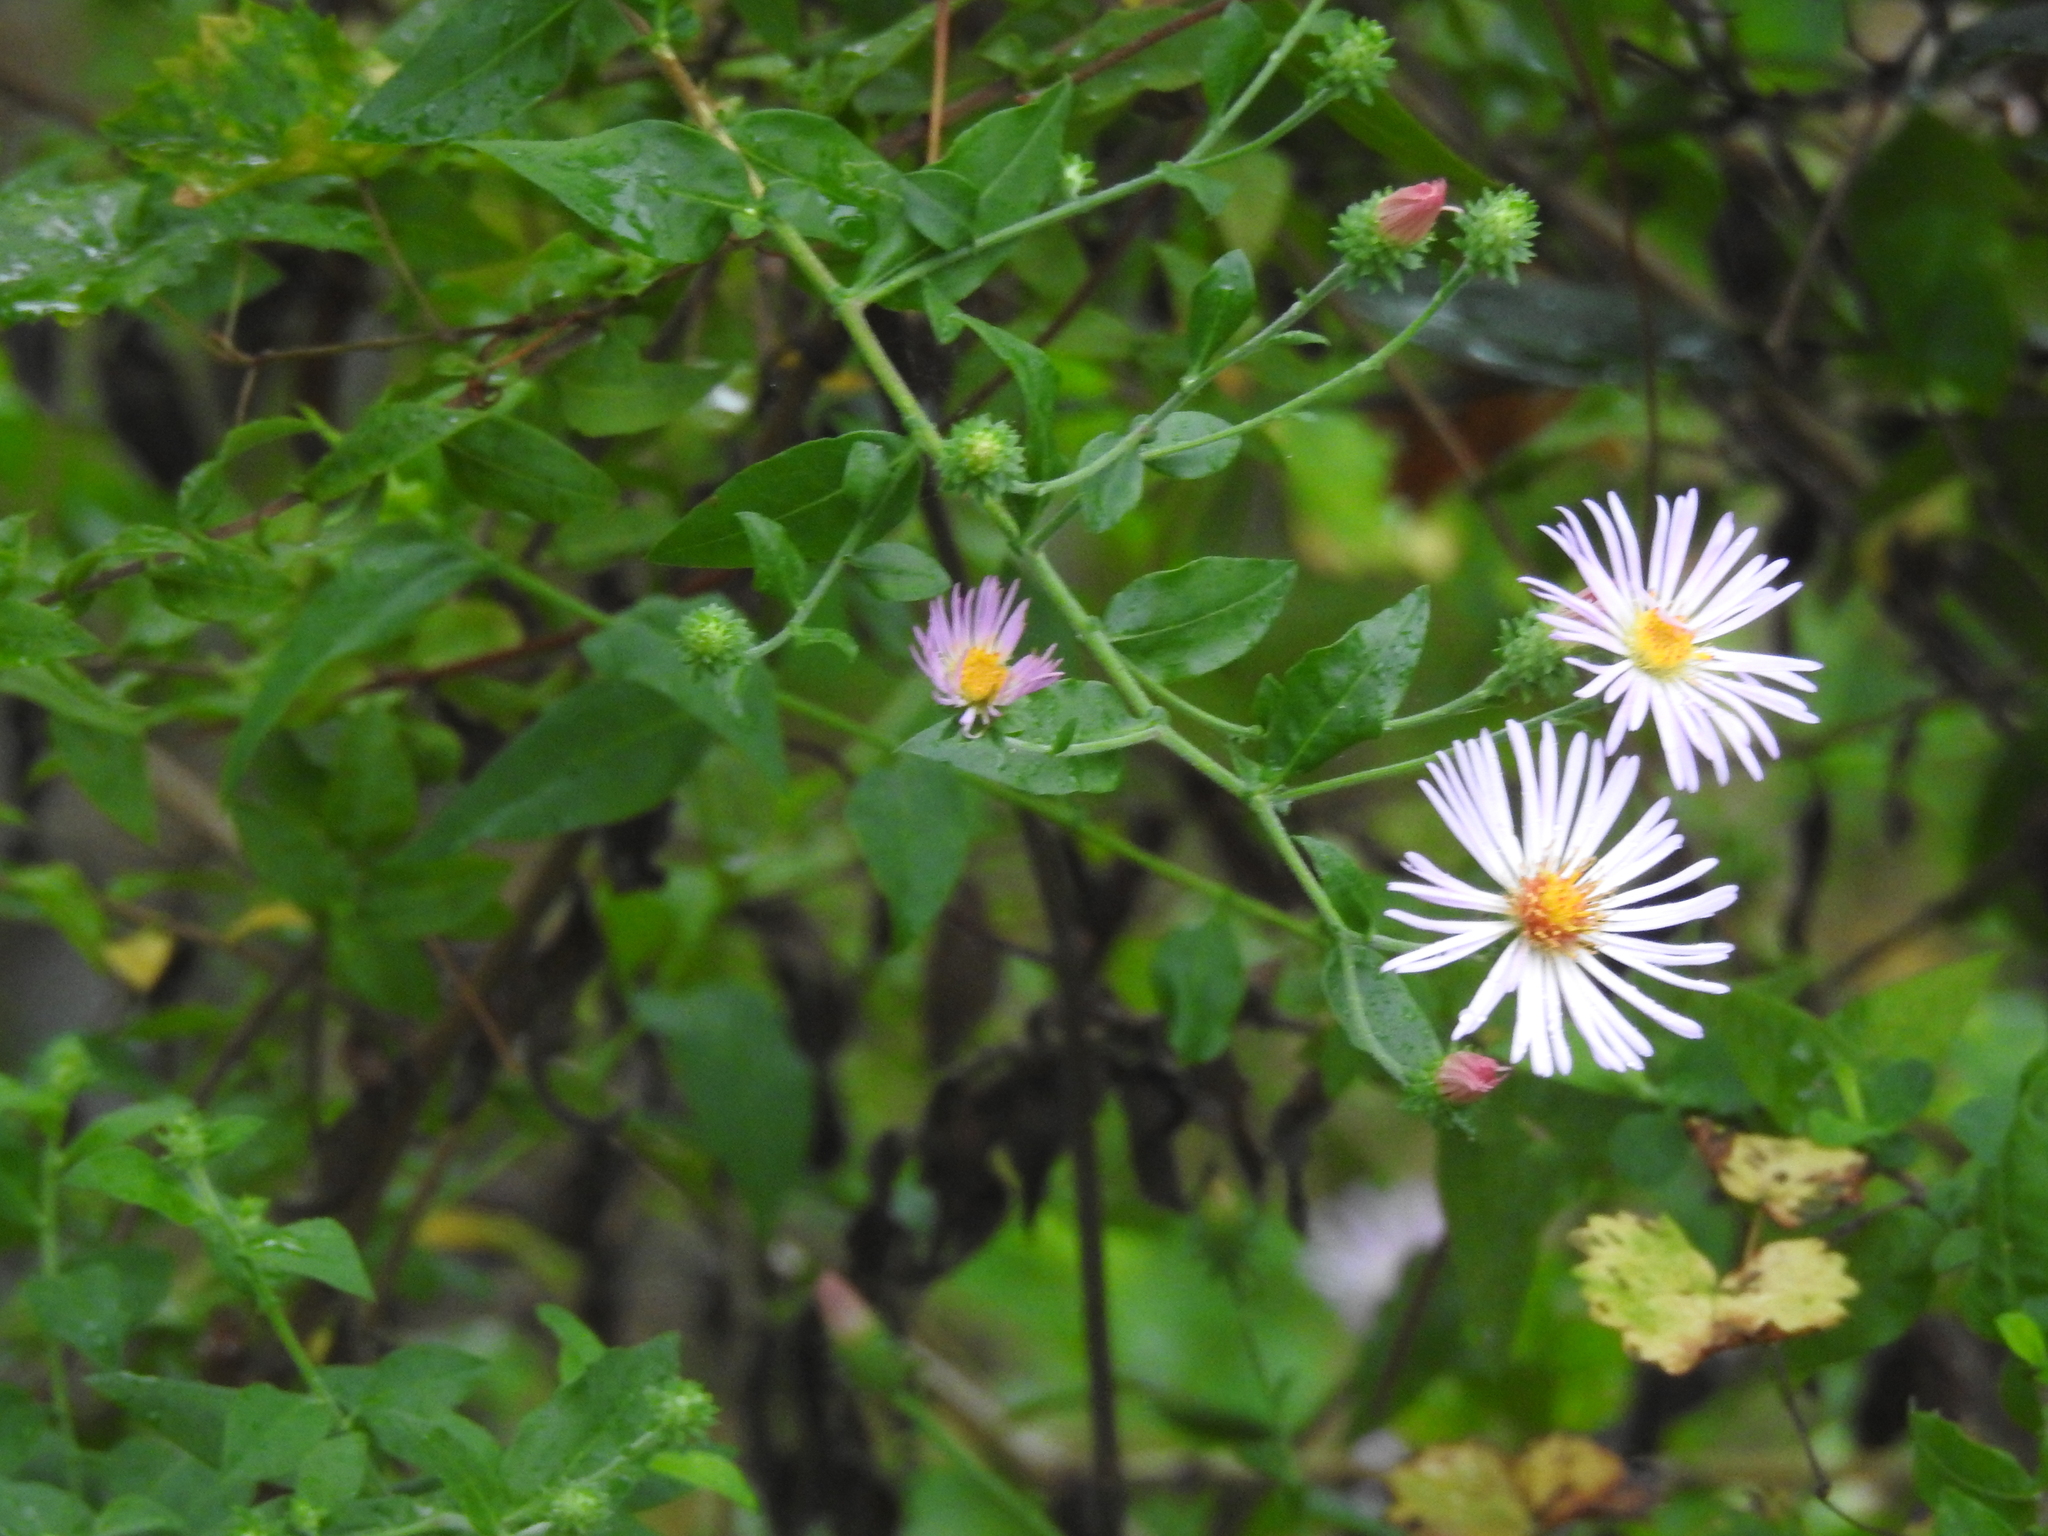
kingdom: Plantae
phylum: Tracheophyta
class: Magnoliopsida
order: Asterales
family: Asteraceae
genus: Ampelaster
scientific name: Ampelaster carolinianus
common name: Climbing aster
